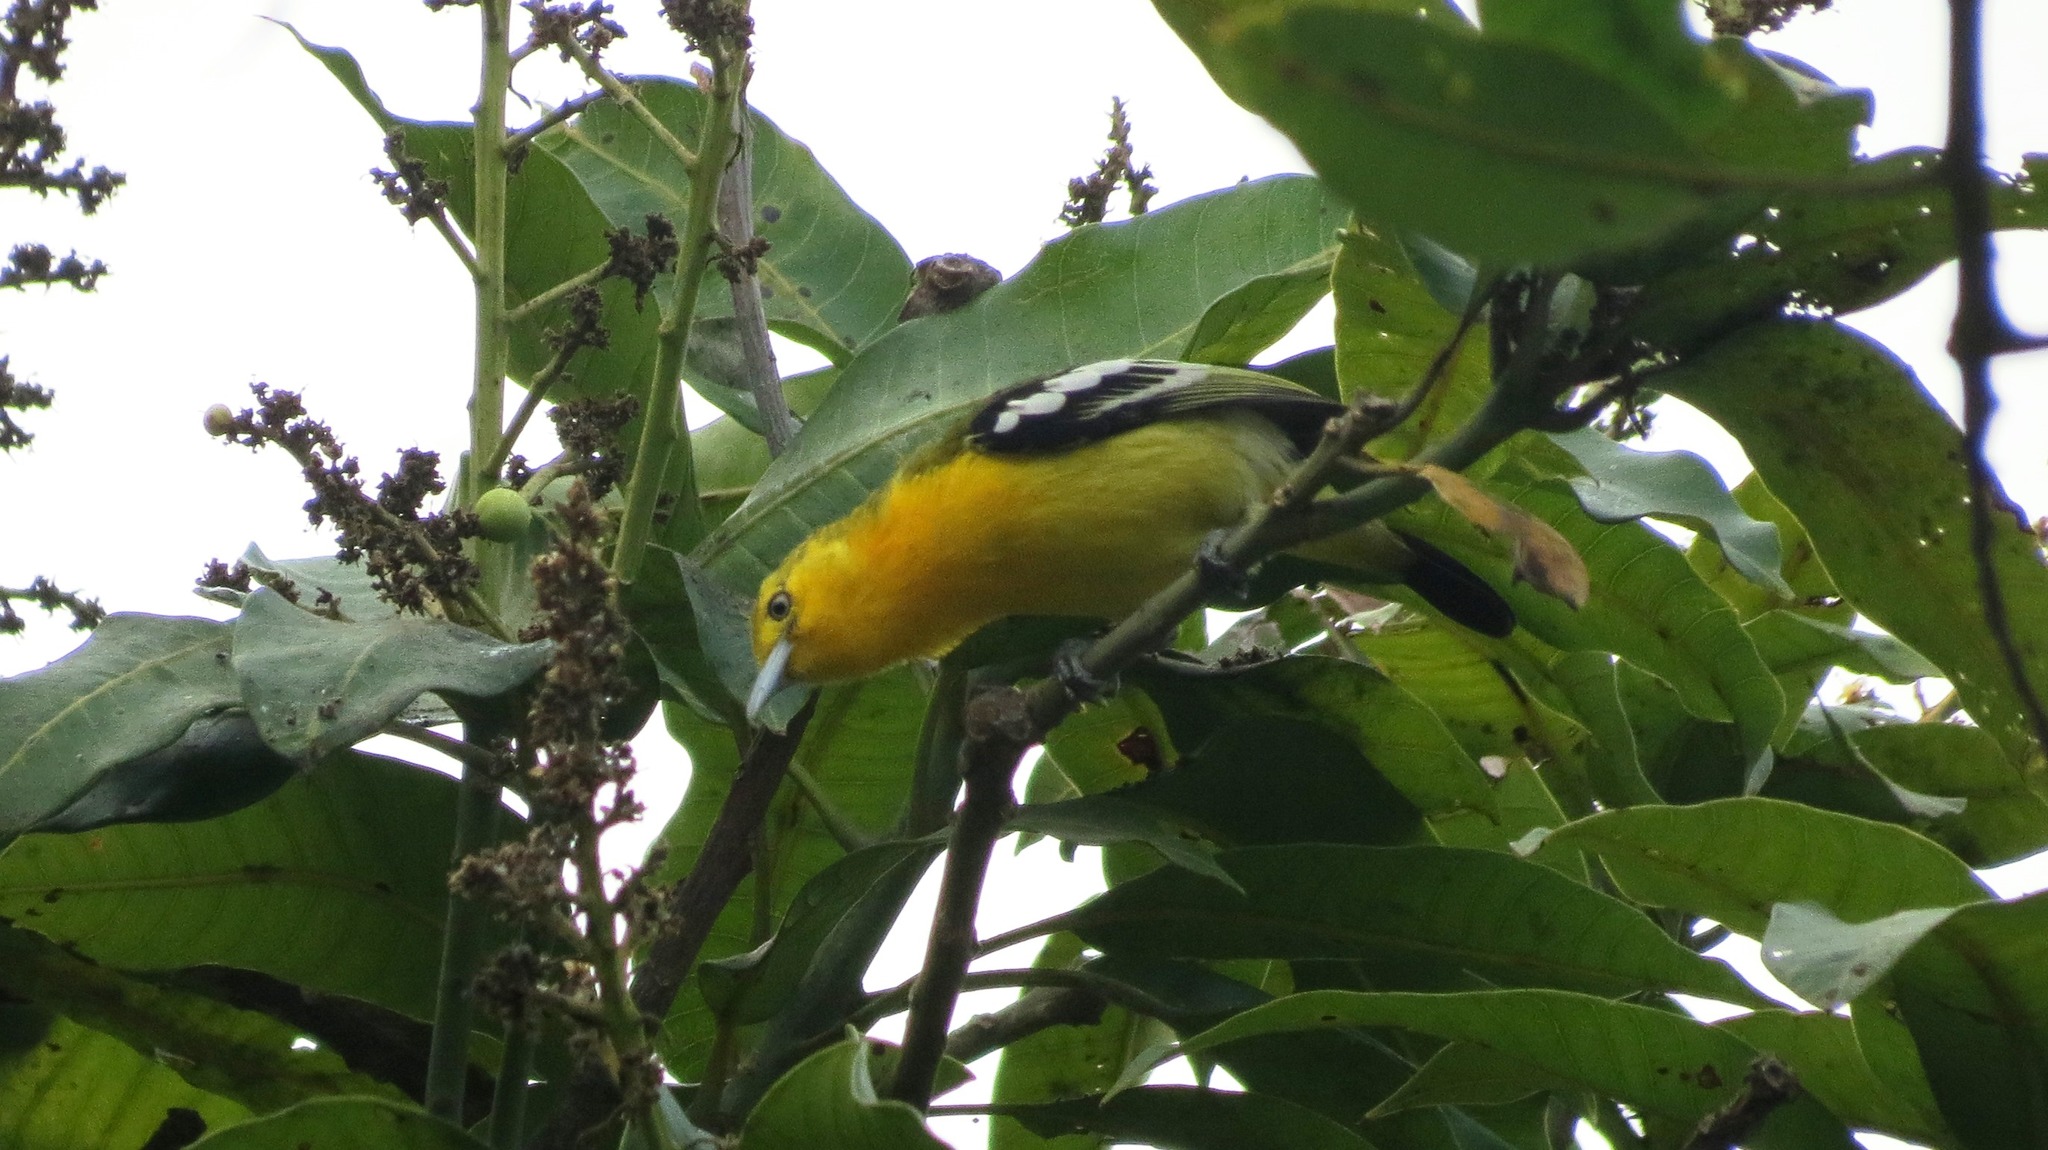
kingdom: Animalia
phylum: Chordata
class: Aves
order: Passeriformes
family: Aegithinidae
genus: Aegithina
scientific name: Aegithina tiphia
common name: Common iora
